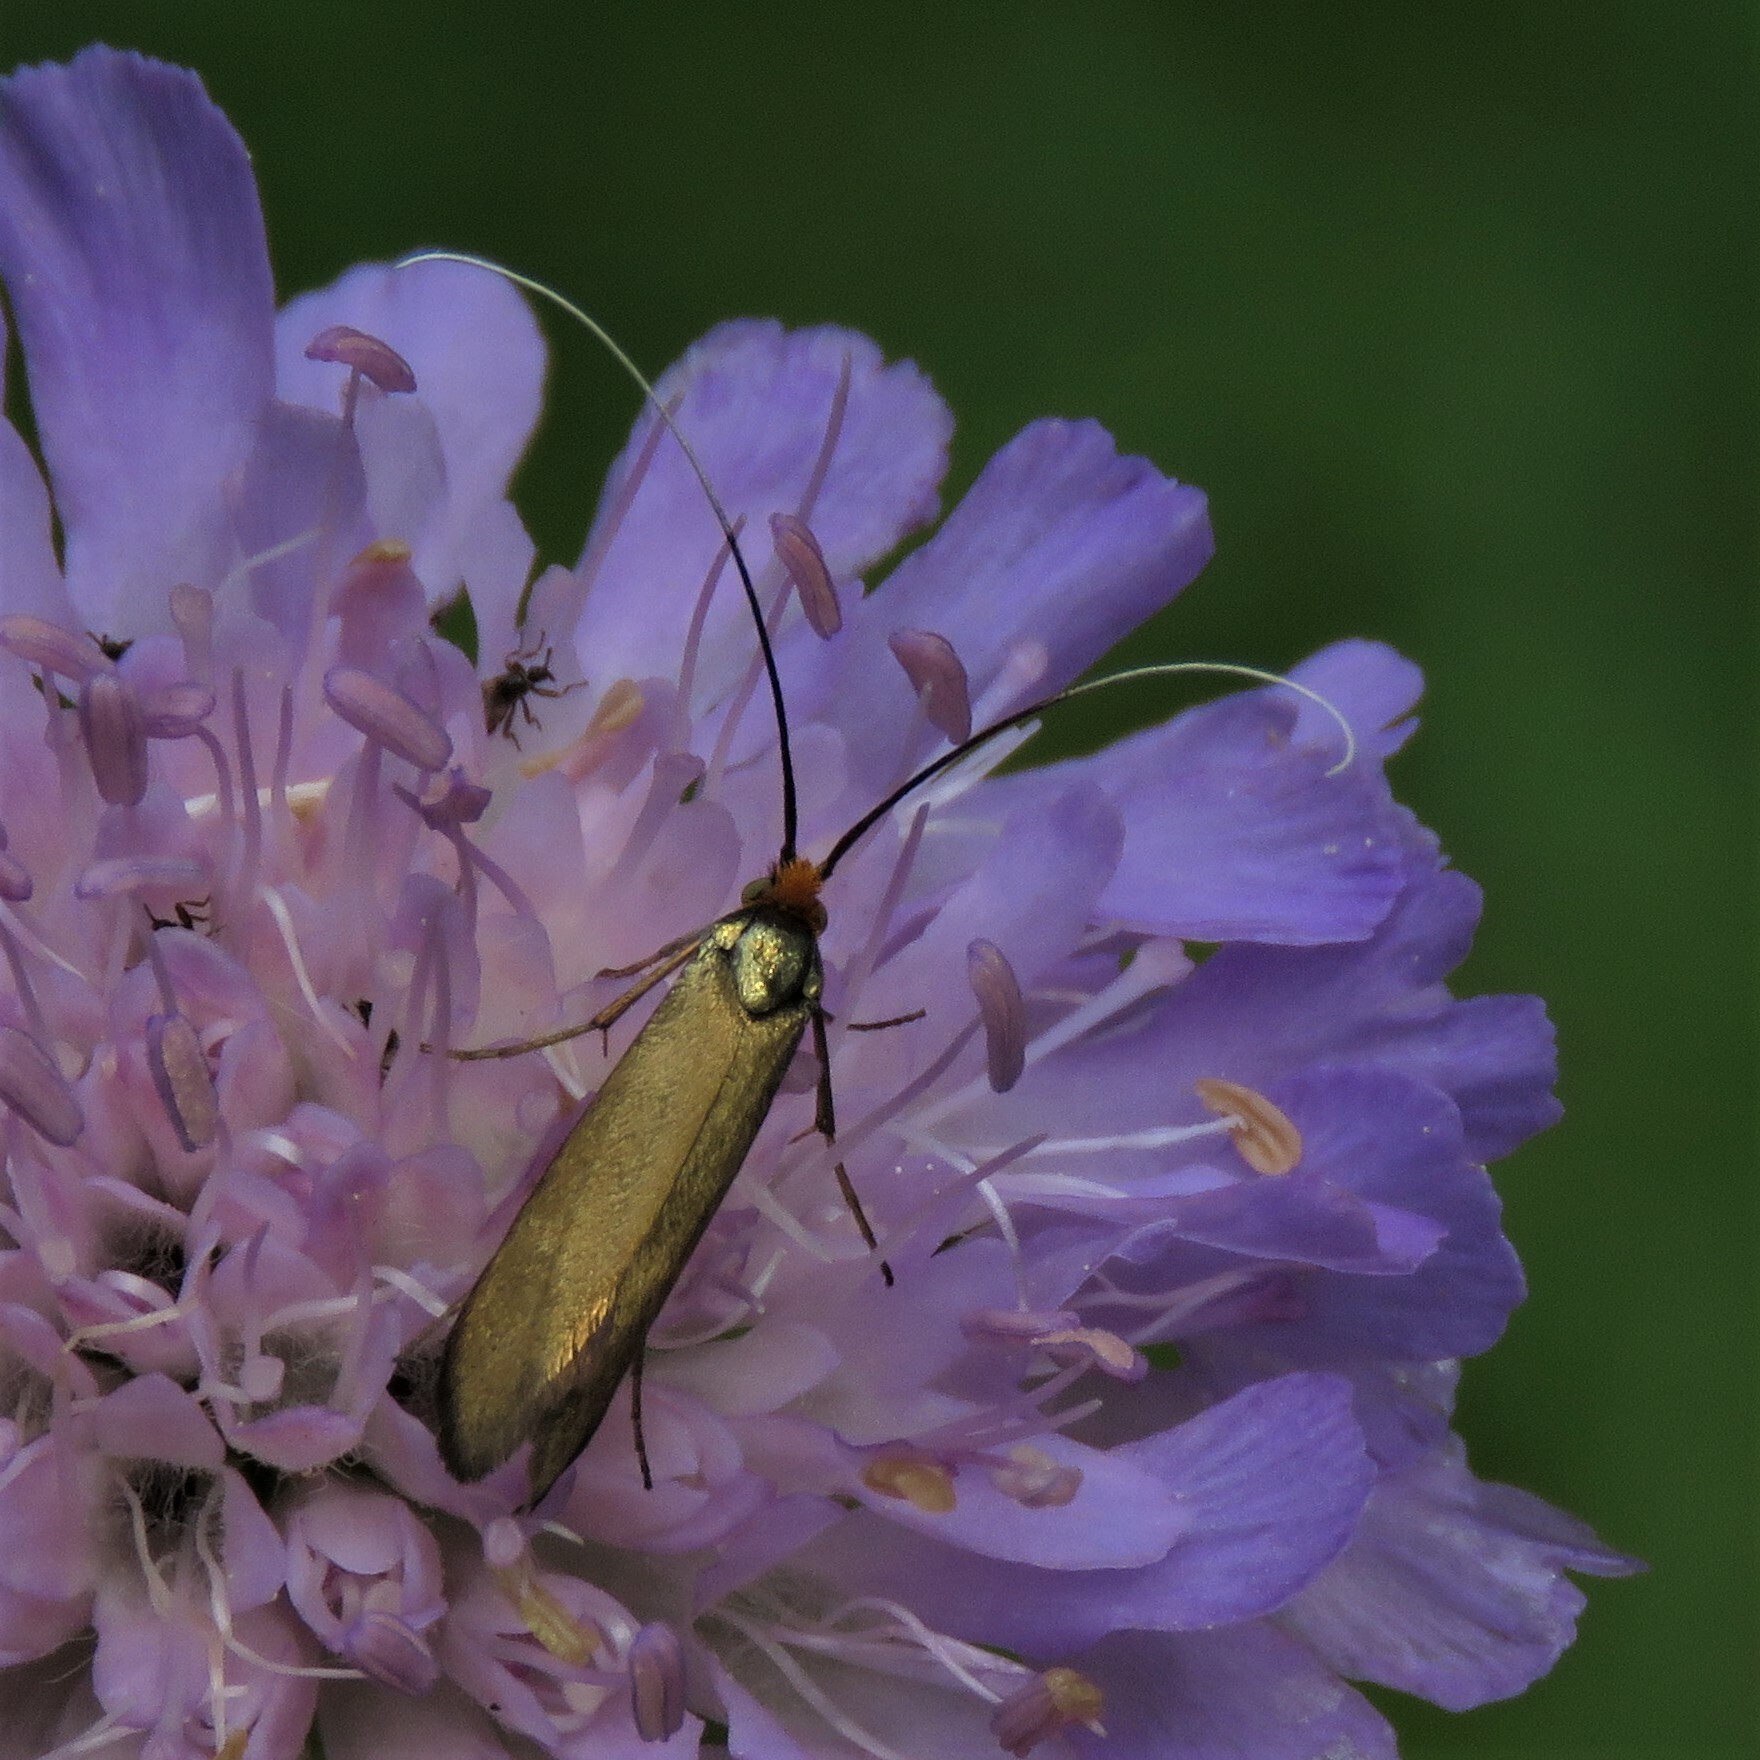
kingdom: Animalia
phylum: Arthropoda
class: Insecta
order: Lepidoptera
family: Adelidae
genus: Nemophora
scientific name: Nemophora metallica
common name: Brassy long-horn
